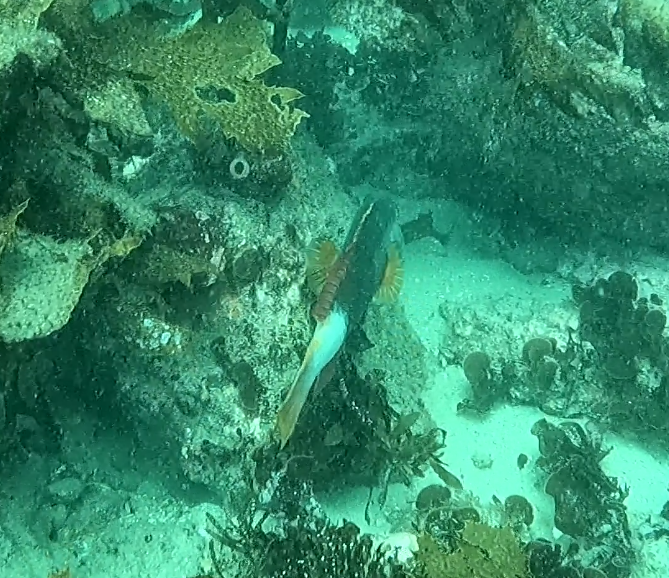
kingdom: Animalia
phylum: Chordata
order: Perciformes
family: Labridae
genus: Notolabrus
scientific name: Notolabrus gymnogenis
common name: Crimson banded wrasse
